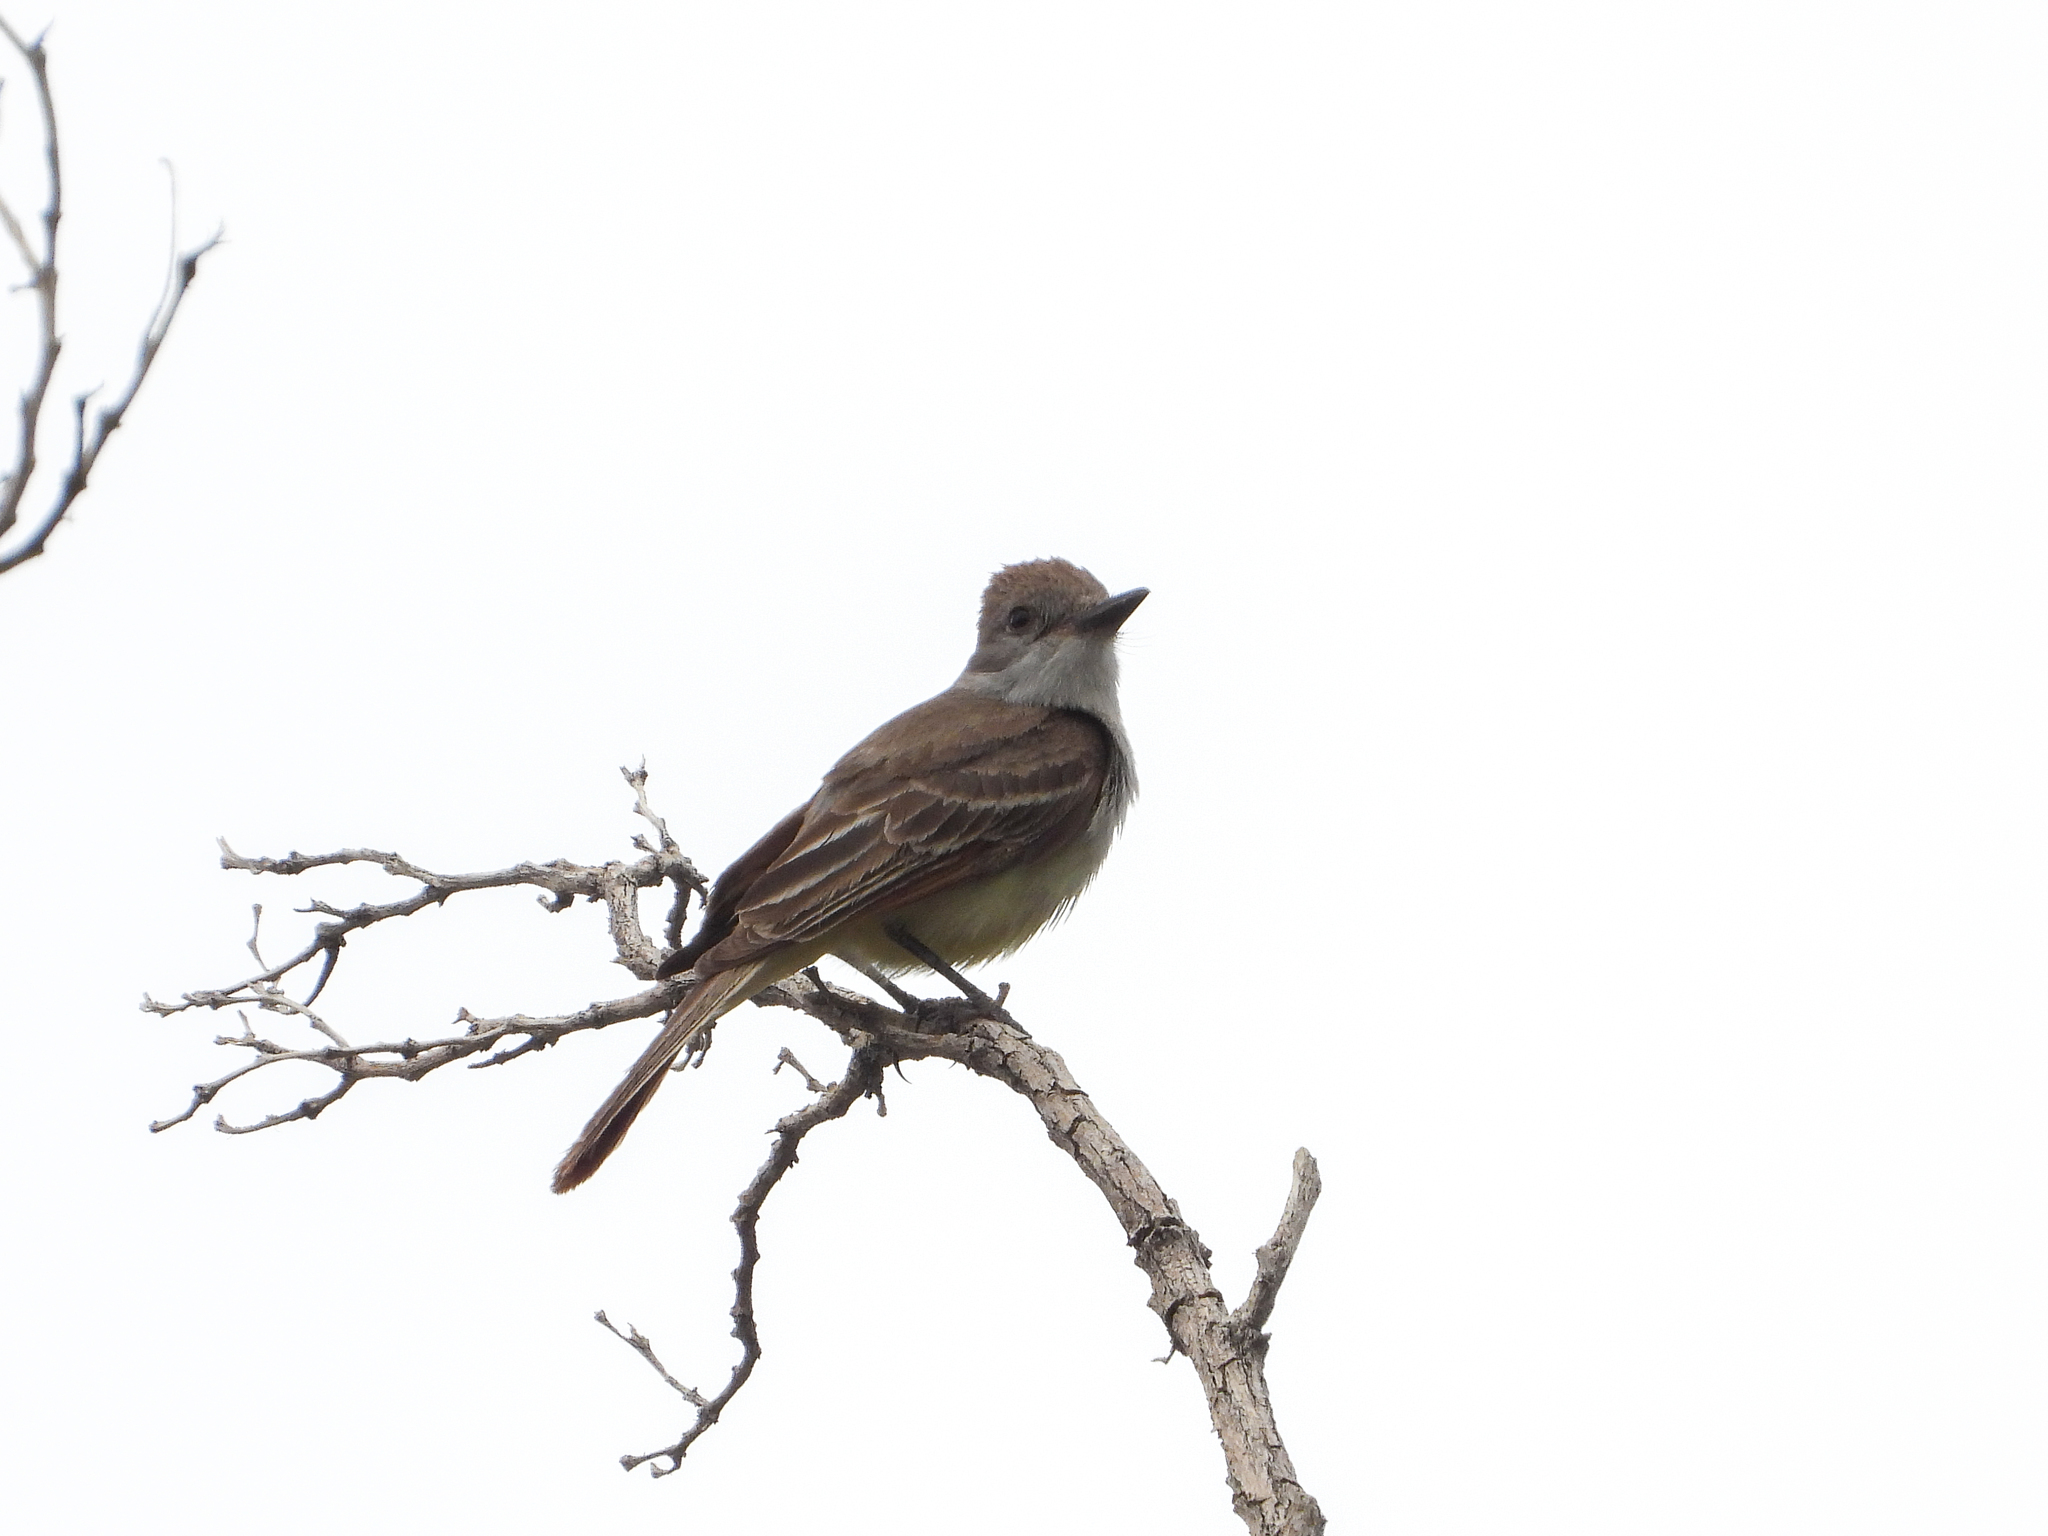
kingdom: Animalia
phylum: Chordata
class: Aves
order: Passeriformes
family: Tyrannidae
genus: Myiarchus
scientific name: Myiarchus cinerascens
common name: Ash-throated flycatcher
